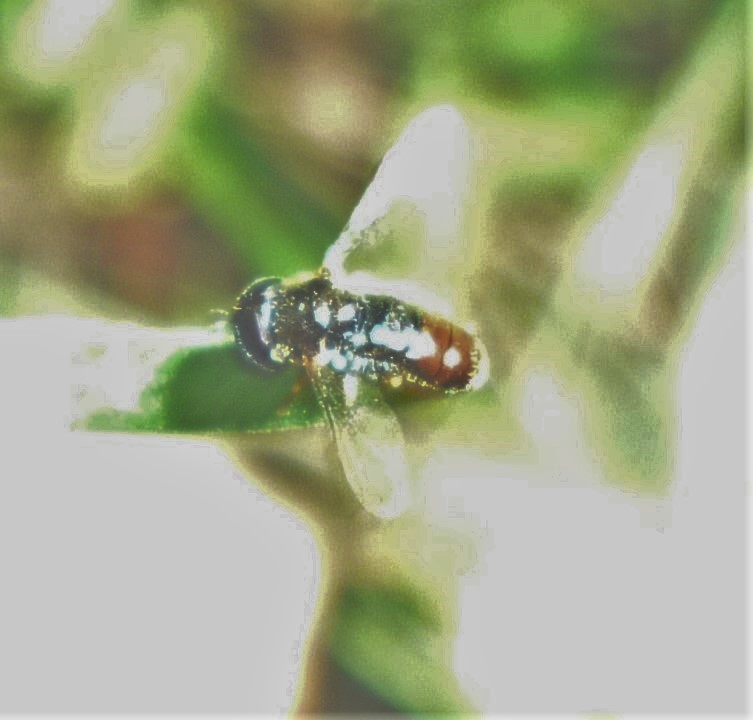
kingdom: Animalia
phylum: Arthropoda
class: Insecta
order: Diptera
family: Syrphidae
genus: Paragus
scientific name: Paragus haemorrhous
